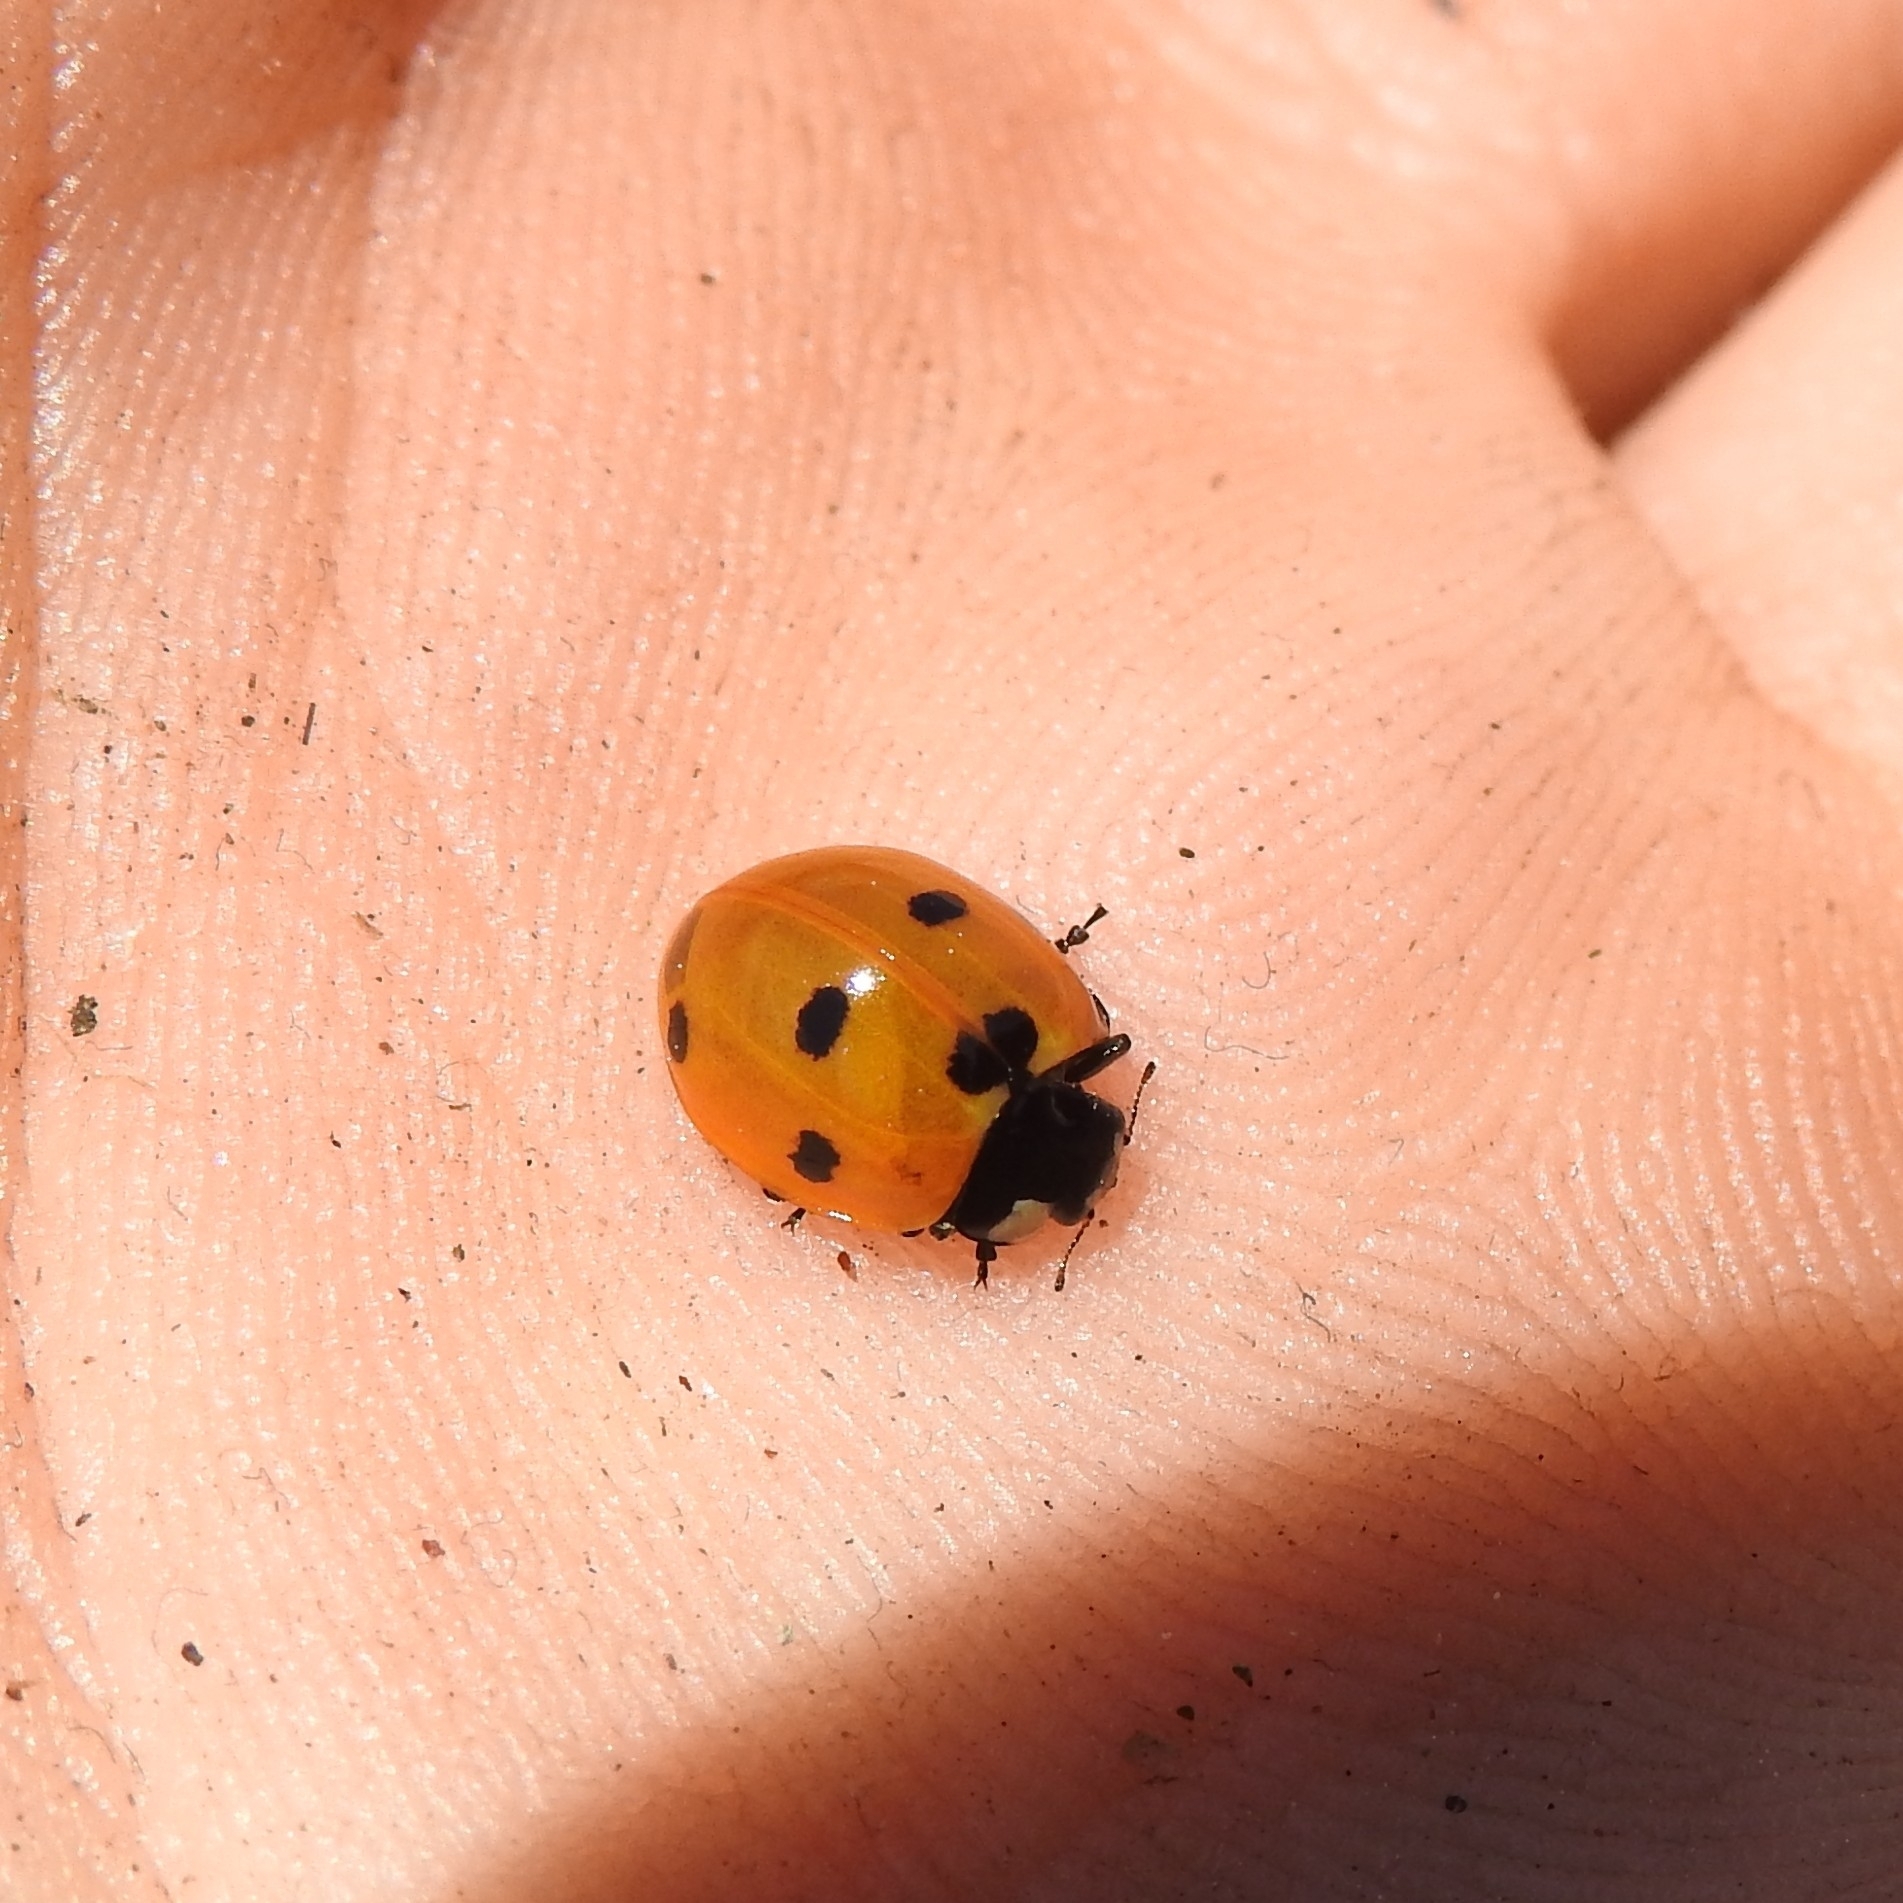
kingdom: Animalia
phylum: Arthropoda
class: Insecta
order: Coleoptera
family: Coccinellidae
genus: Coccinella
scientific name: Coccinella septempunctata
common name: Sevenspotted lady beetle
